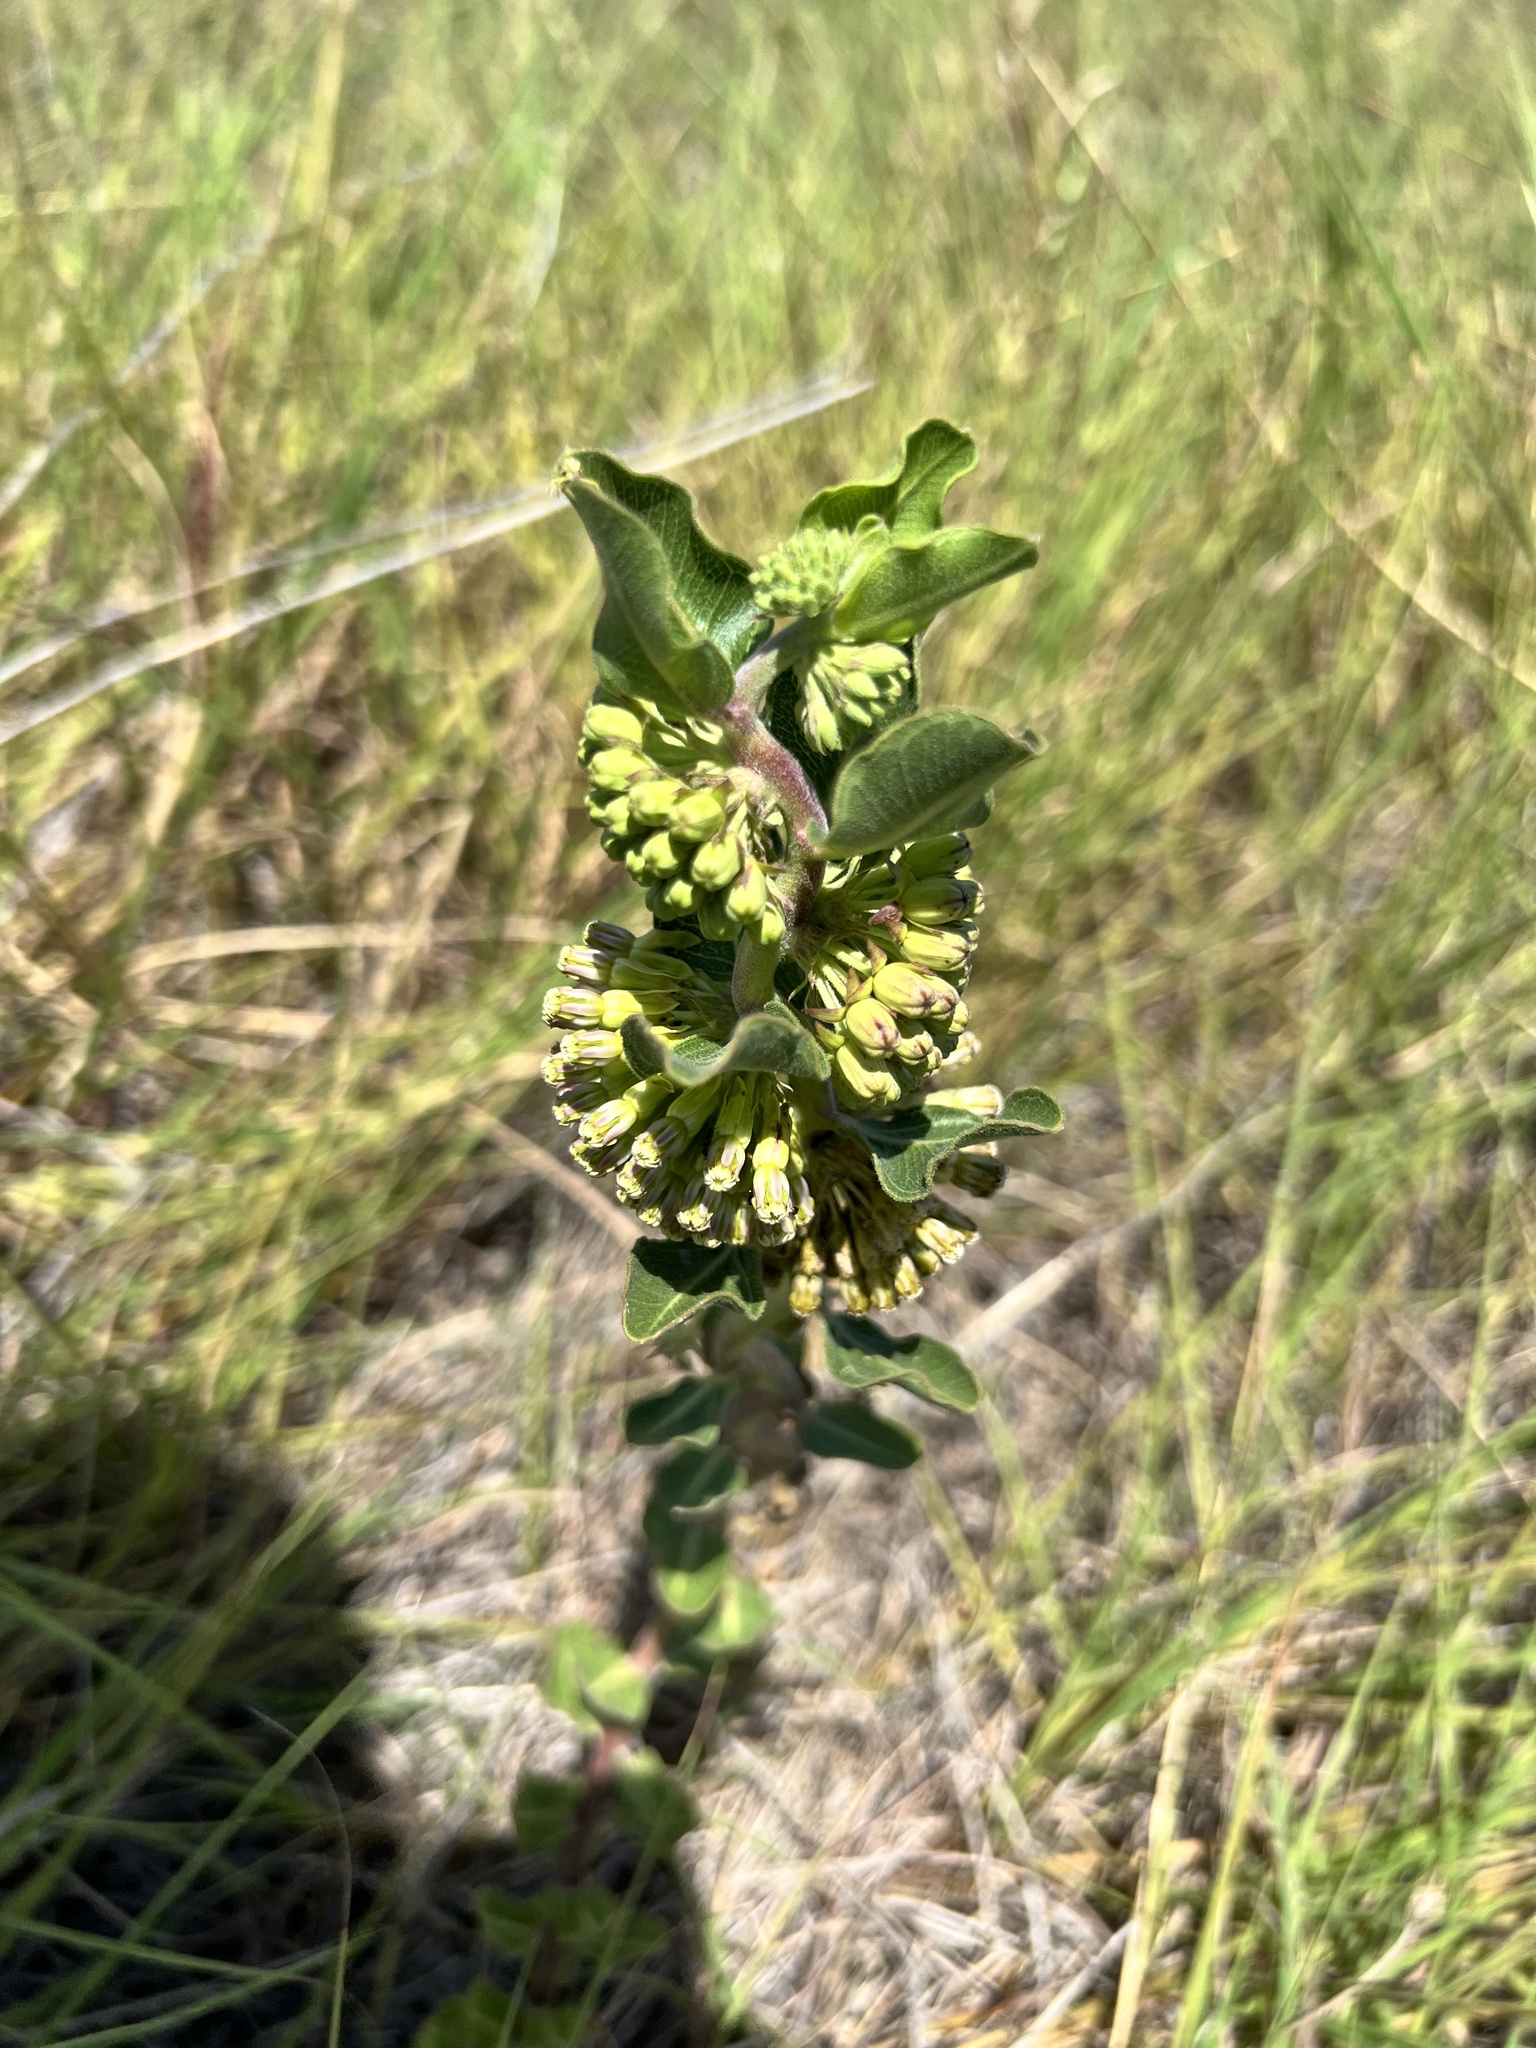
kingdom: Plantae
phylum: Tracheophyta
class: Magnoliopsida
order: Gentianales
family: Apocynaceae
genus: Asclepias
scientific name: Asclepias viridiflora
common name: Green comet milkweed
